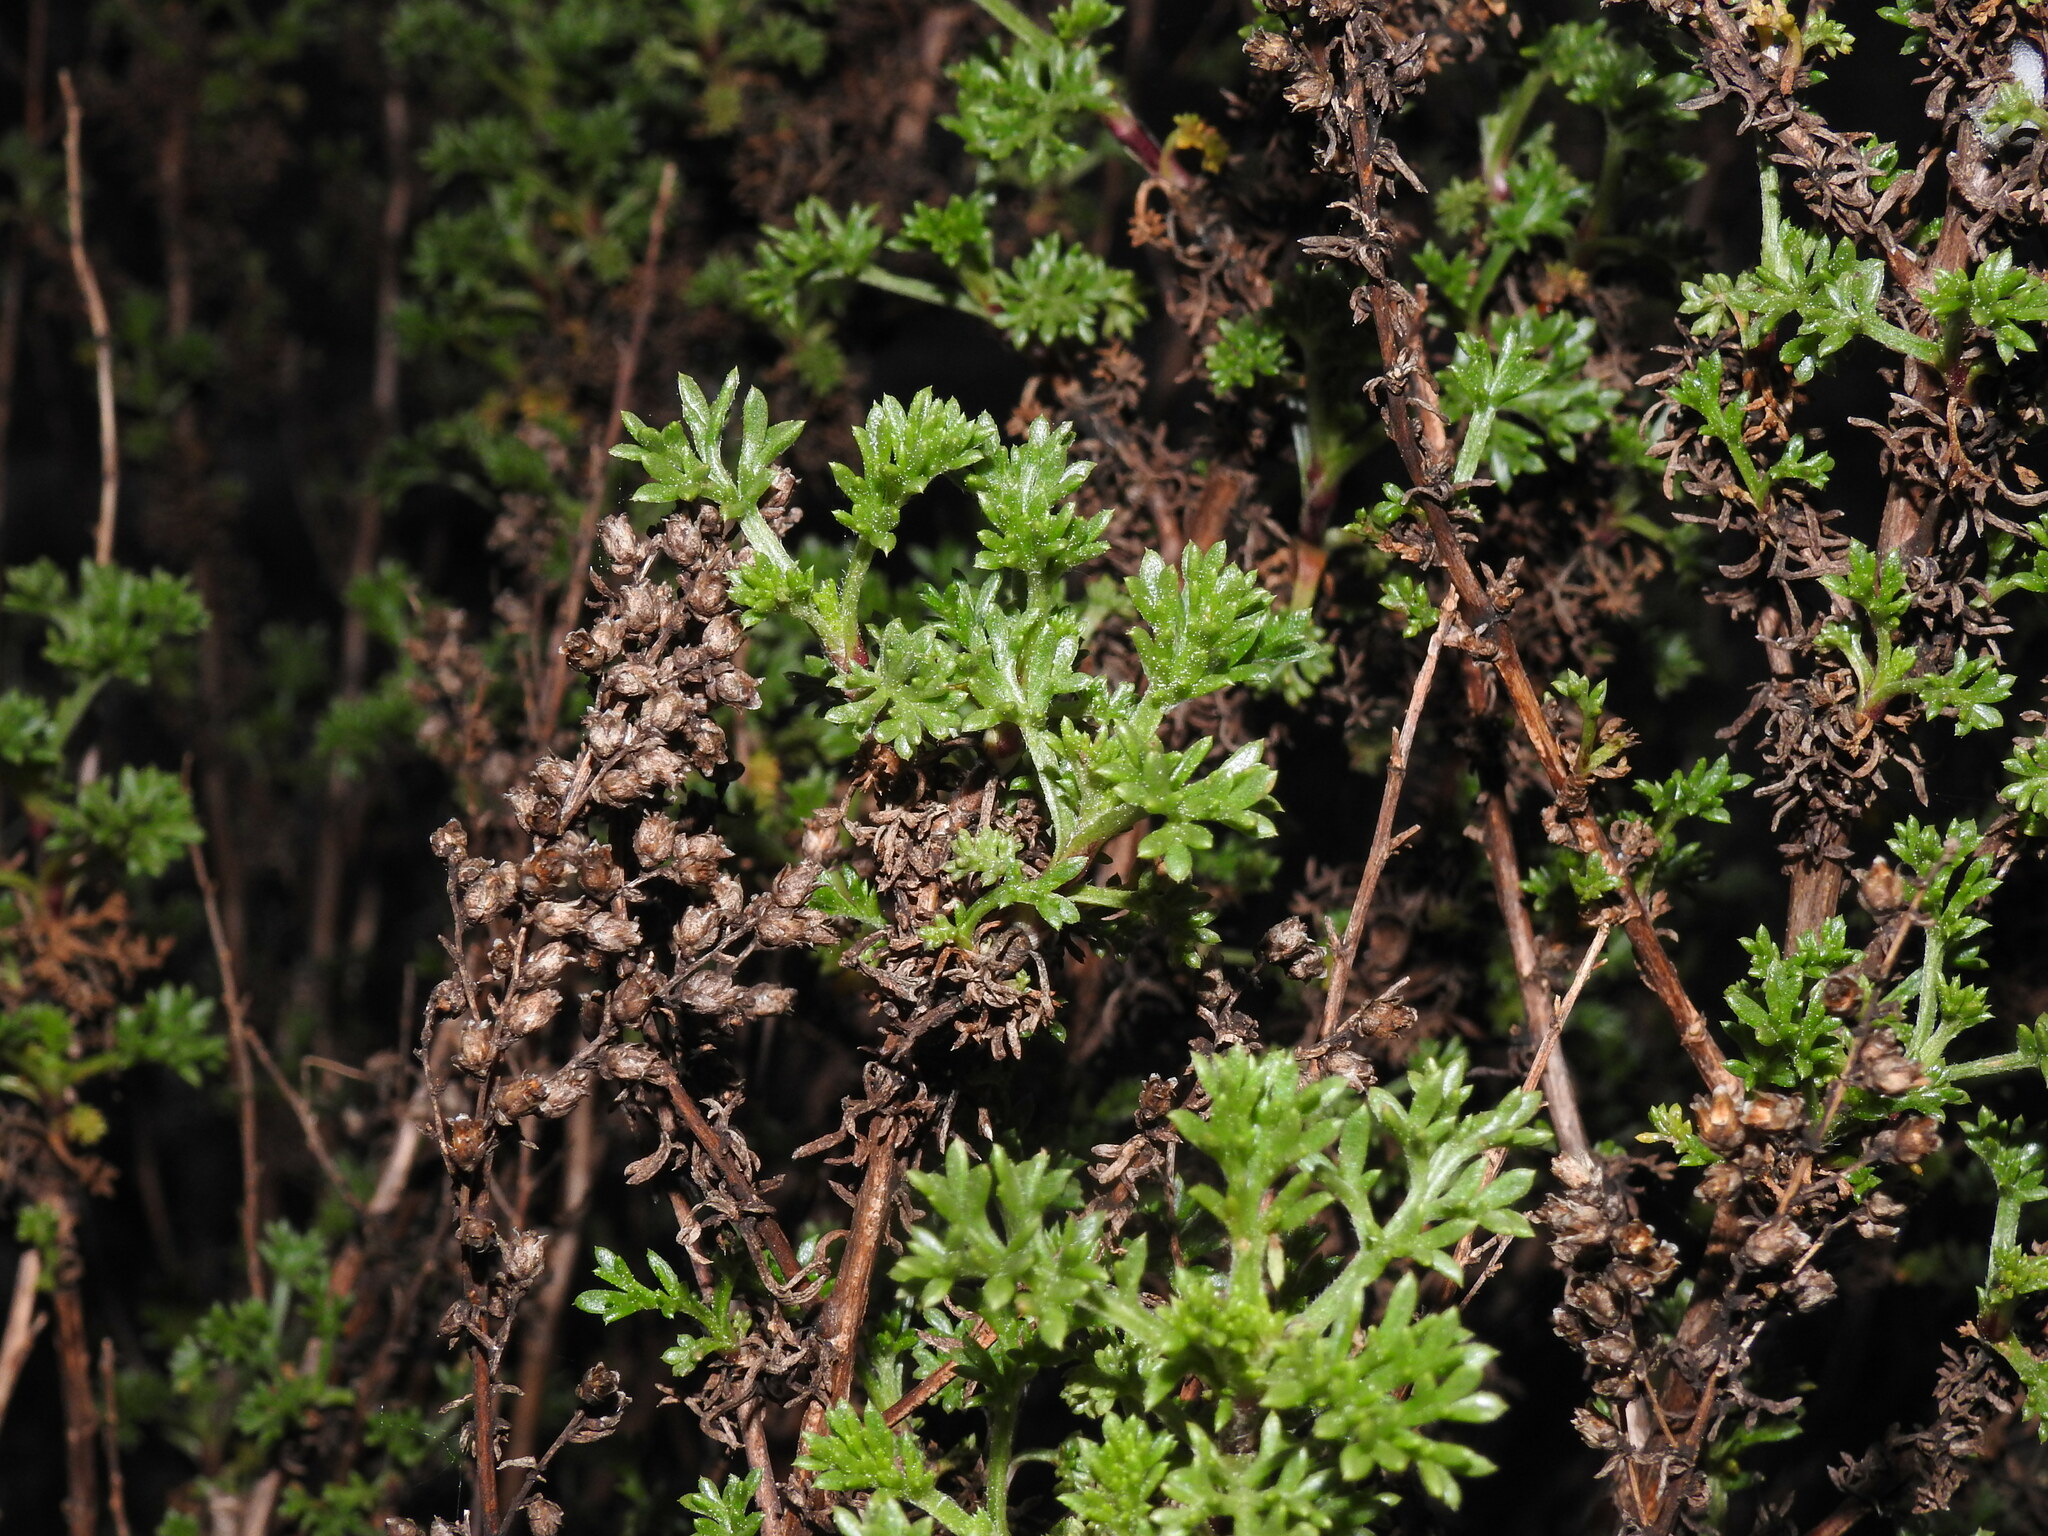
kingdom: Plantae
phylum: Tracheophyta
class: Magnoliopsida
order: Asterales
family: Asteraceae
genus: Artemisia
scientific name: Artemisia crithmifolia
